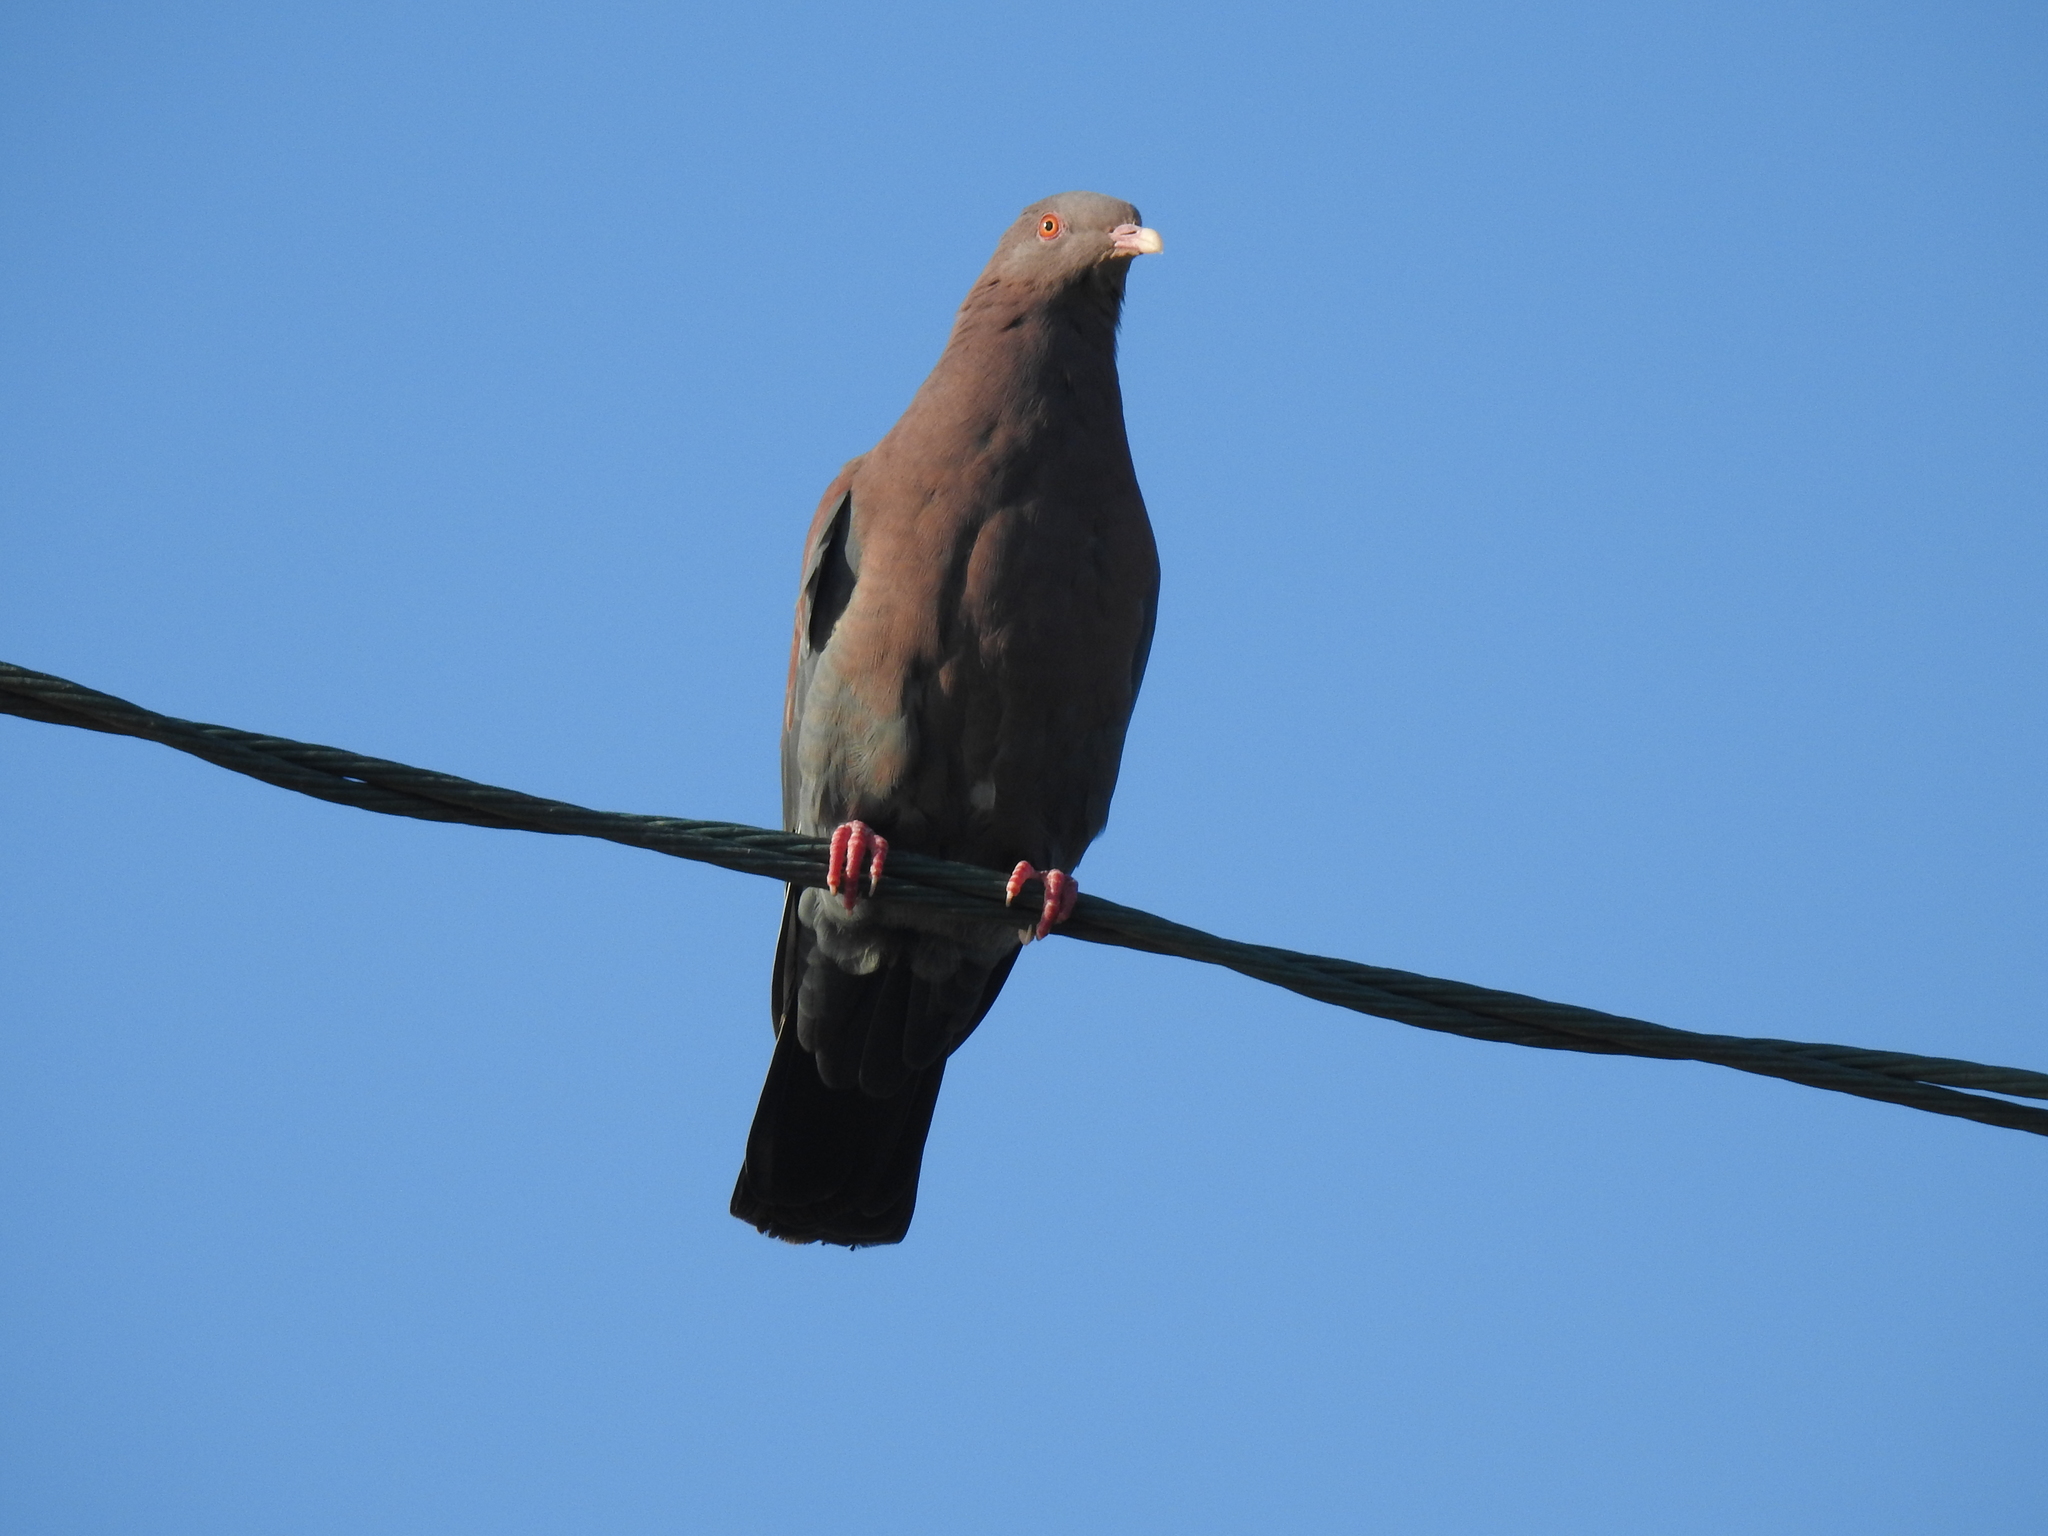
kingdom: Animalia
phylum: Chordata
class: Aves
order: Columbiformes
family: Columbidae
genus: Patagioenas
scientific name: Patagioenas flavirostris
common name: Red-billed pigeon
